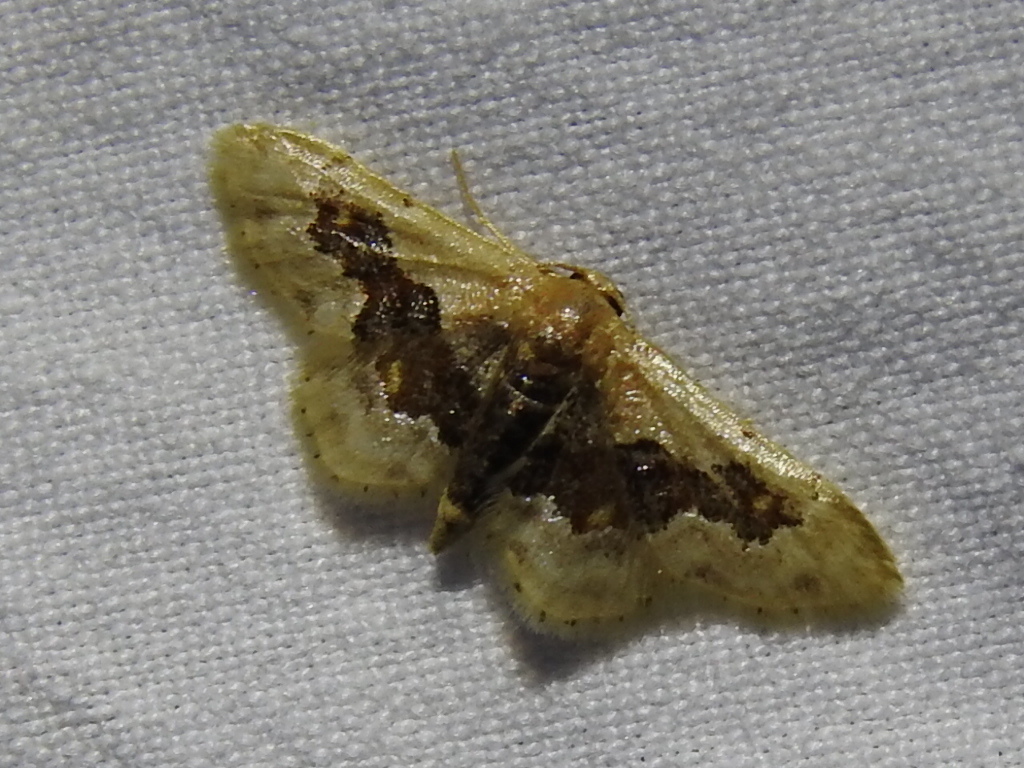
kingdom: Animalia
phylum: Arthropoda
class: Insecta
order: Lepidoptera
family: Geometridae
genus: Idaea
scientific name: Idaea gemmata
